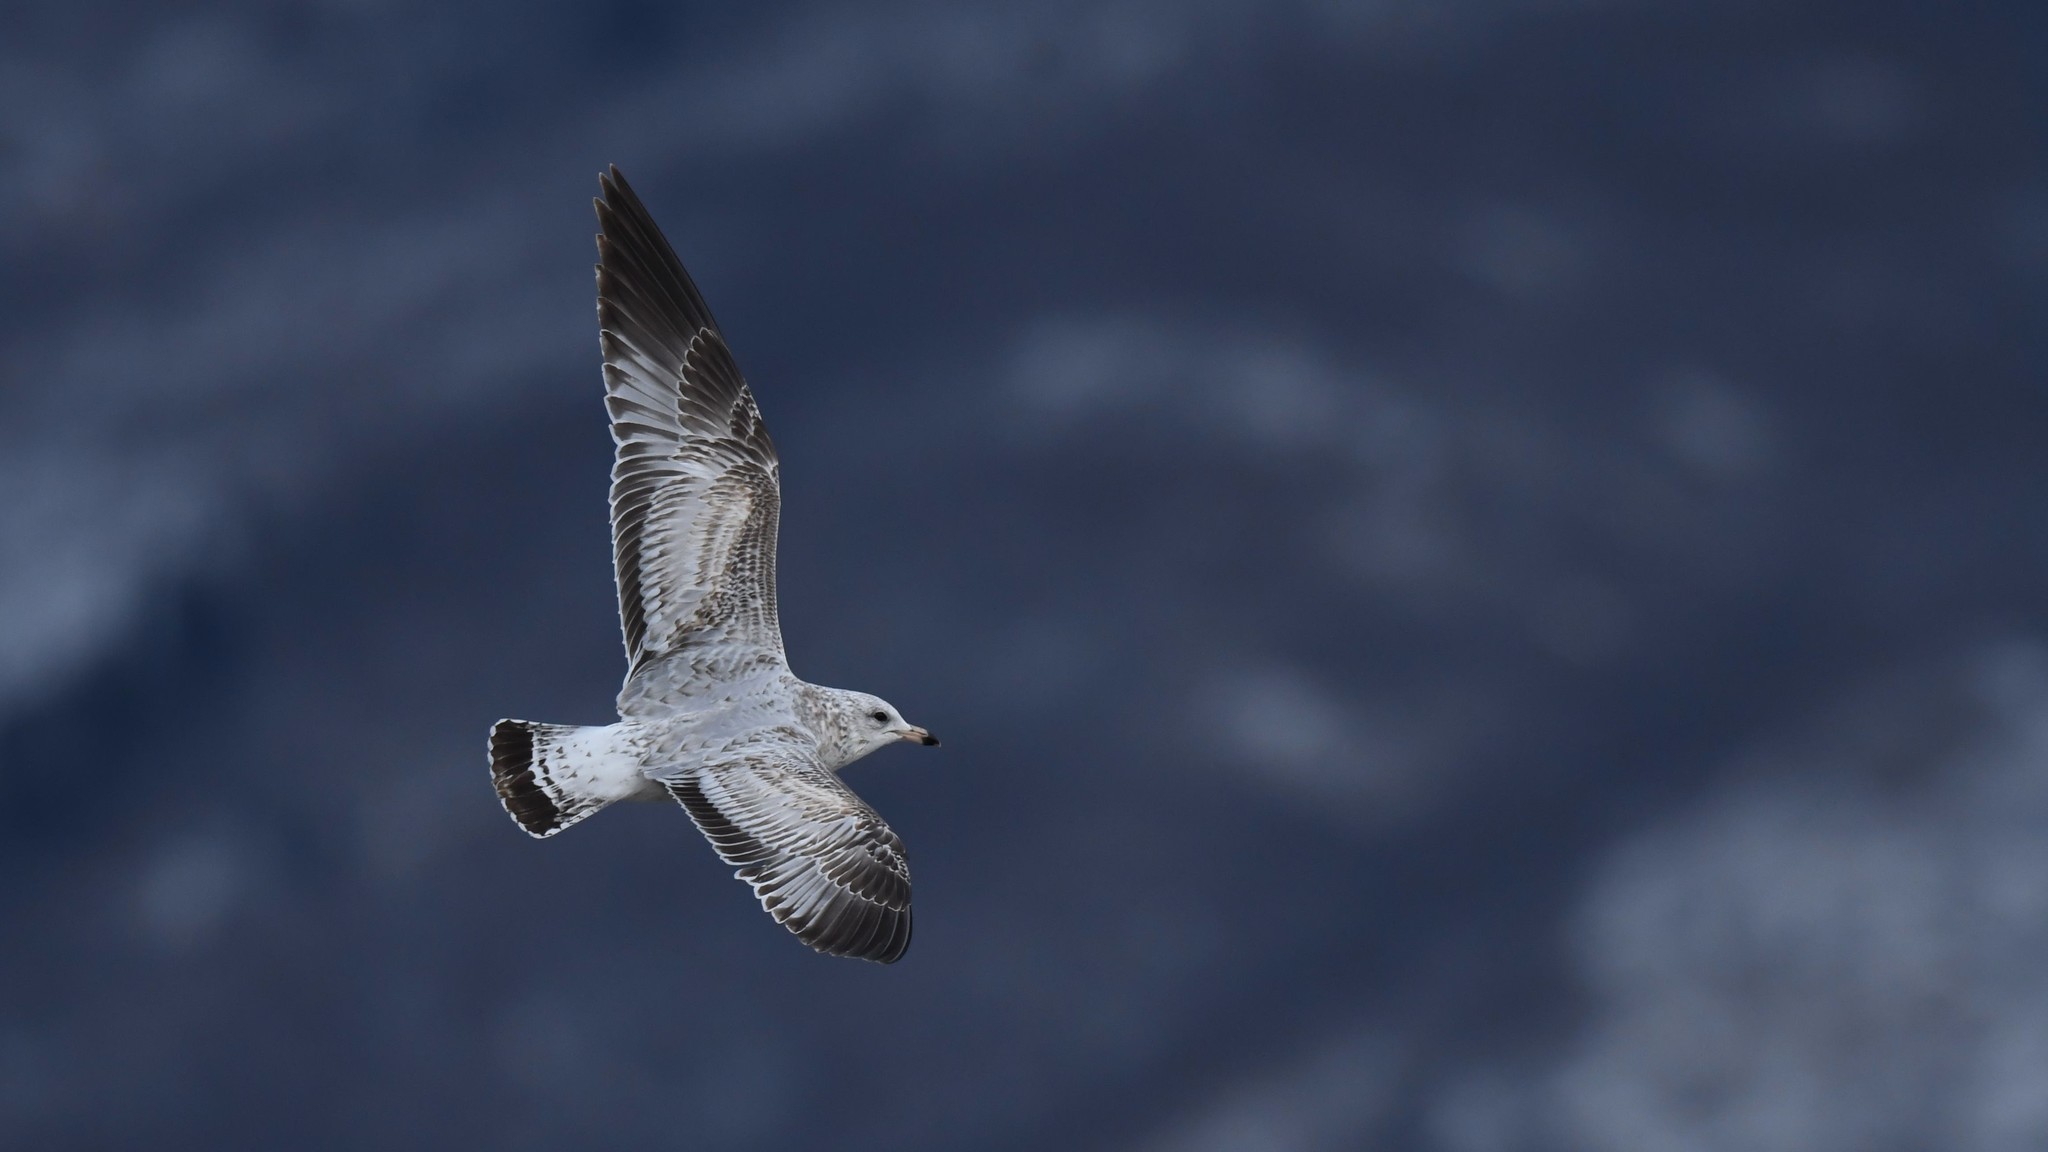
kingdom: Animalia
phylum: Chordata
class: Aves
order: Charadriiformes
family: Laridae
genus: Larus
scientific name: Larus delawarensis
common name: Ring-billed gull
